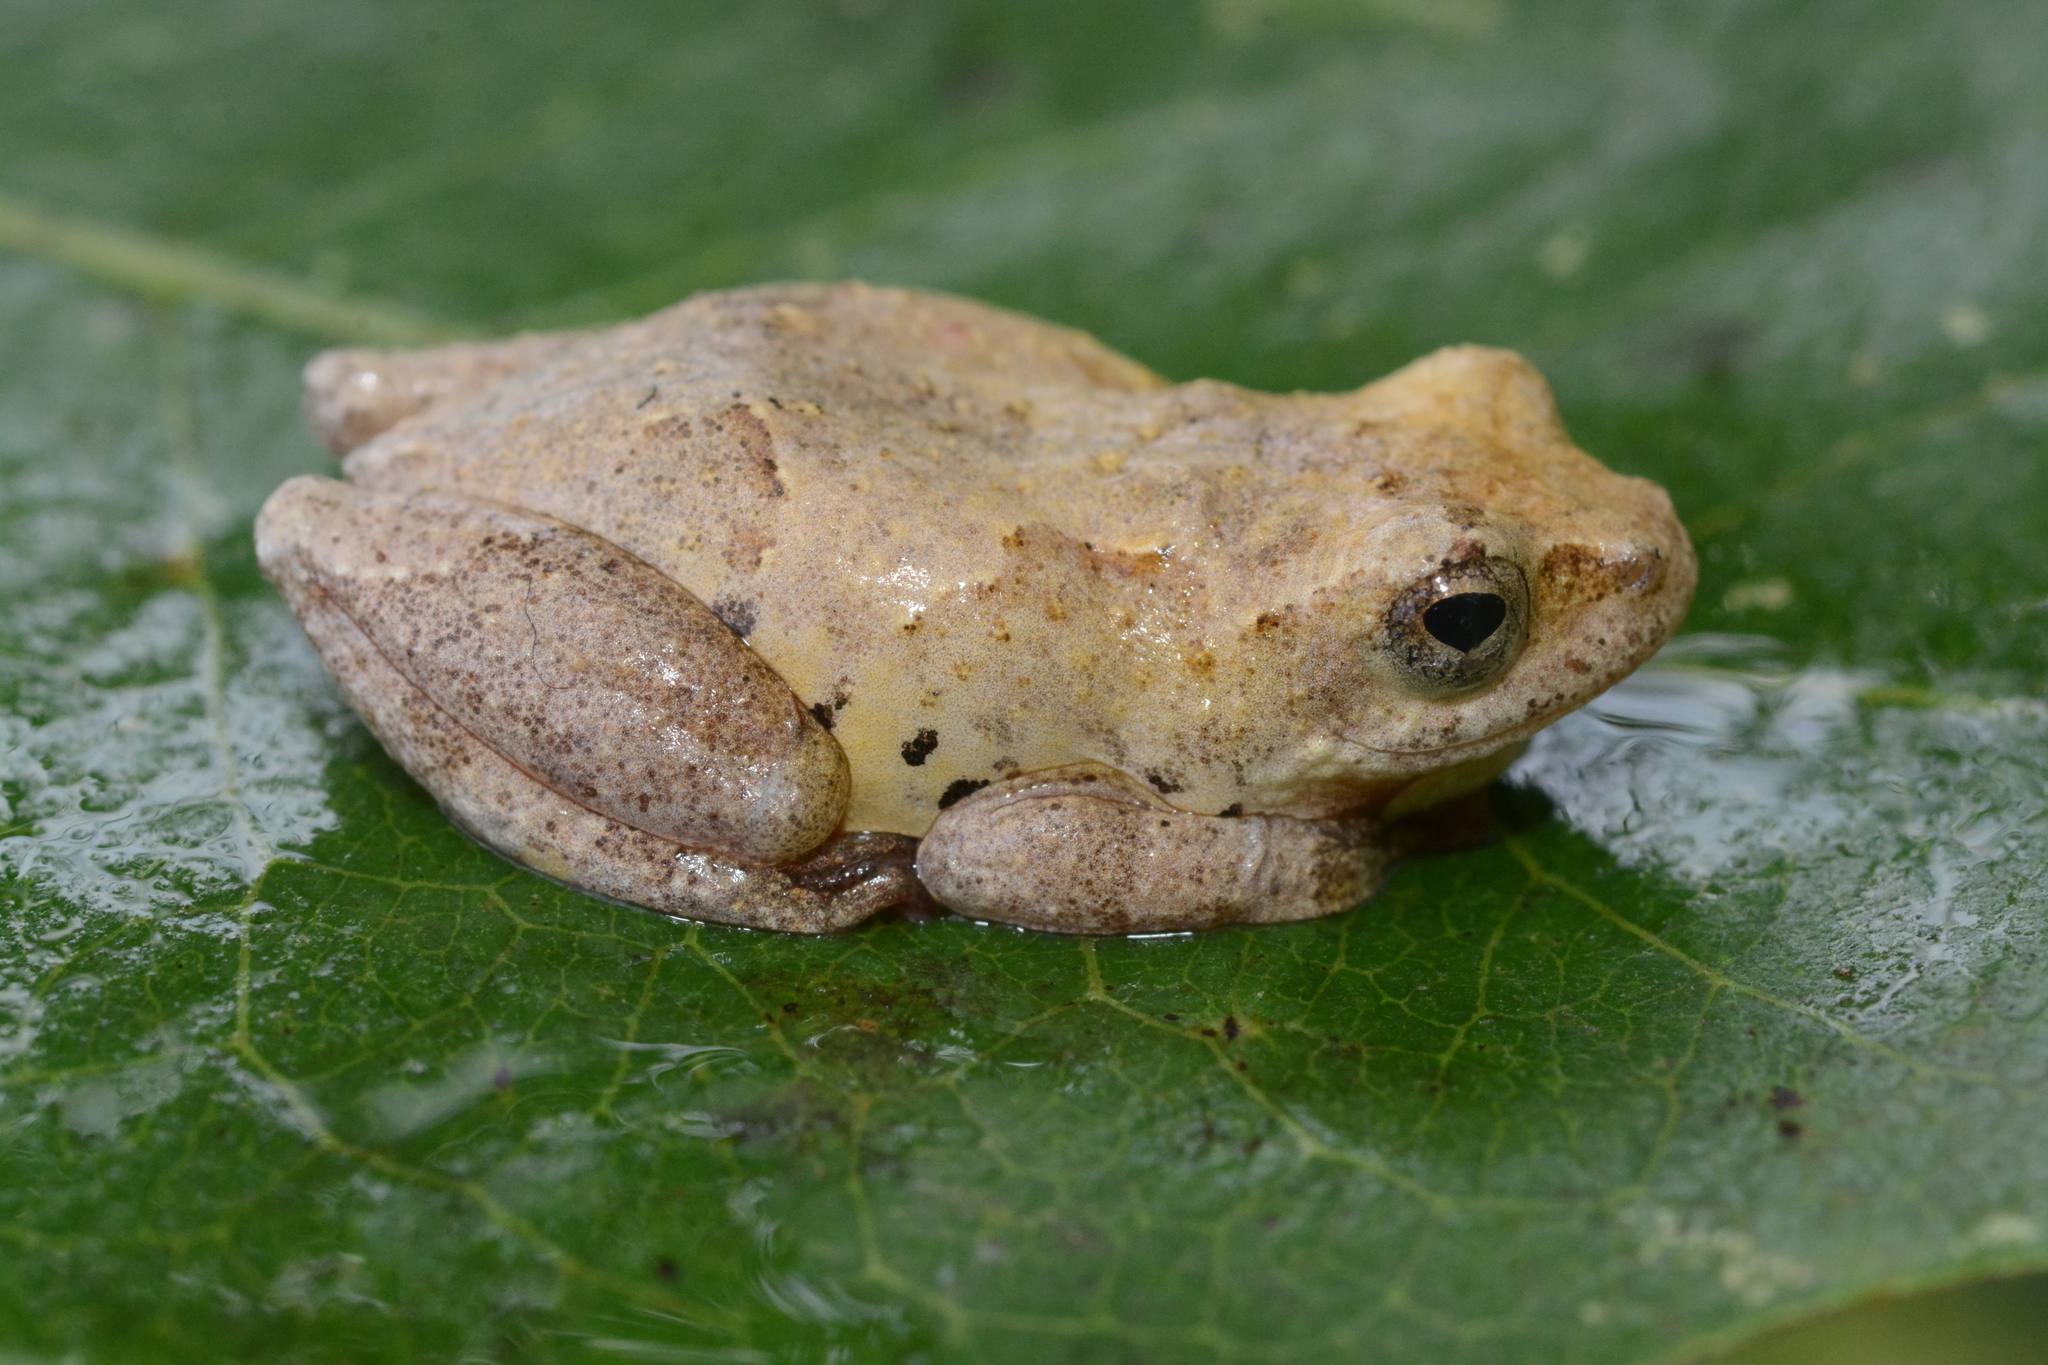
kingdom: Animalia
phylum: Chordata
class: Amphibia
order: Anura
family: Hyperoliidae
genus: Hyperolius
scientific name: Hyperolius viridiflavus
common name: Common reed frog
